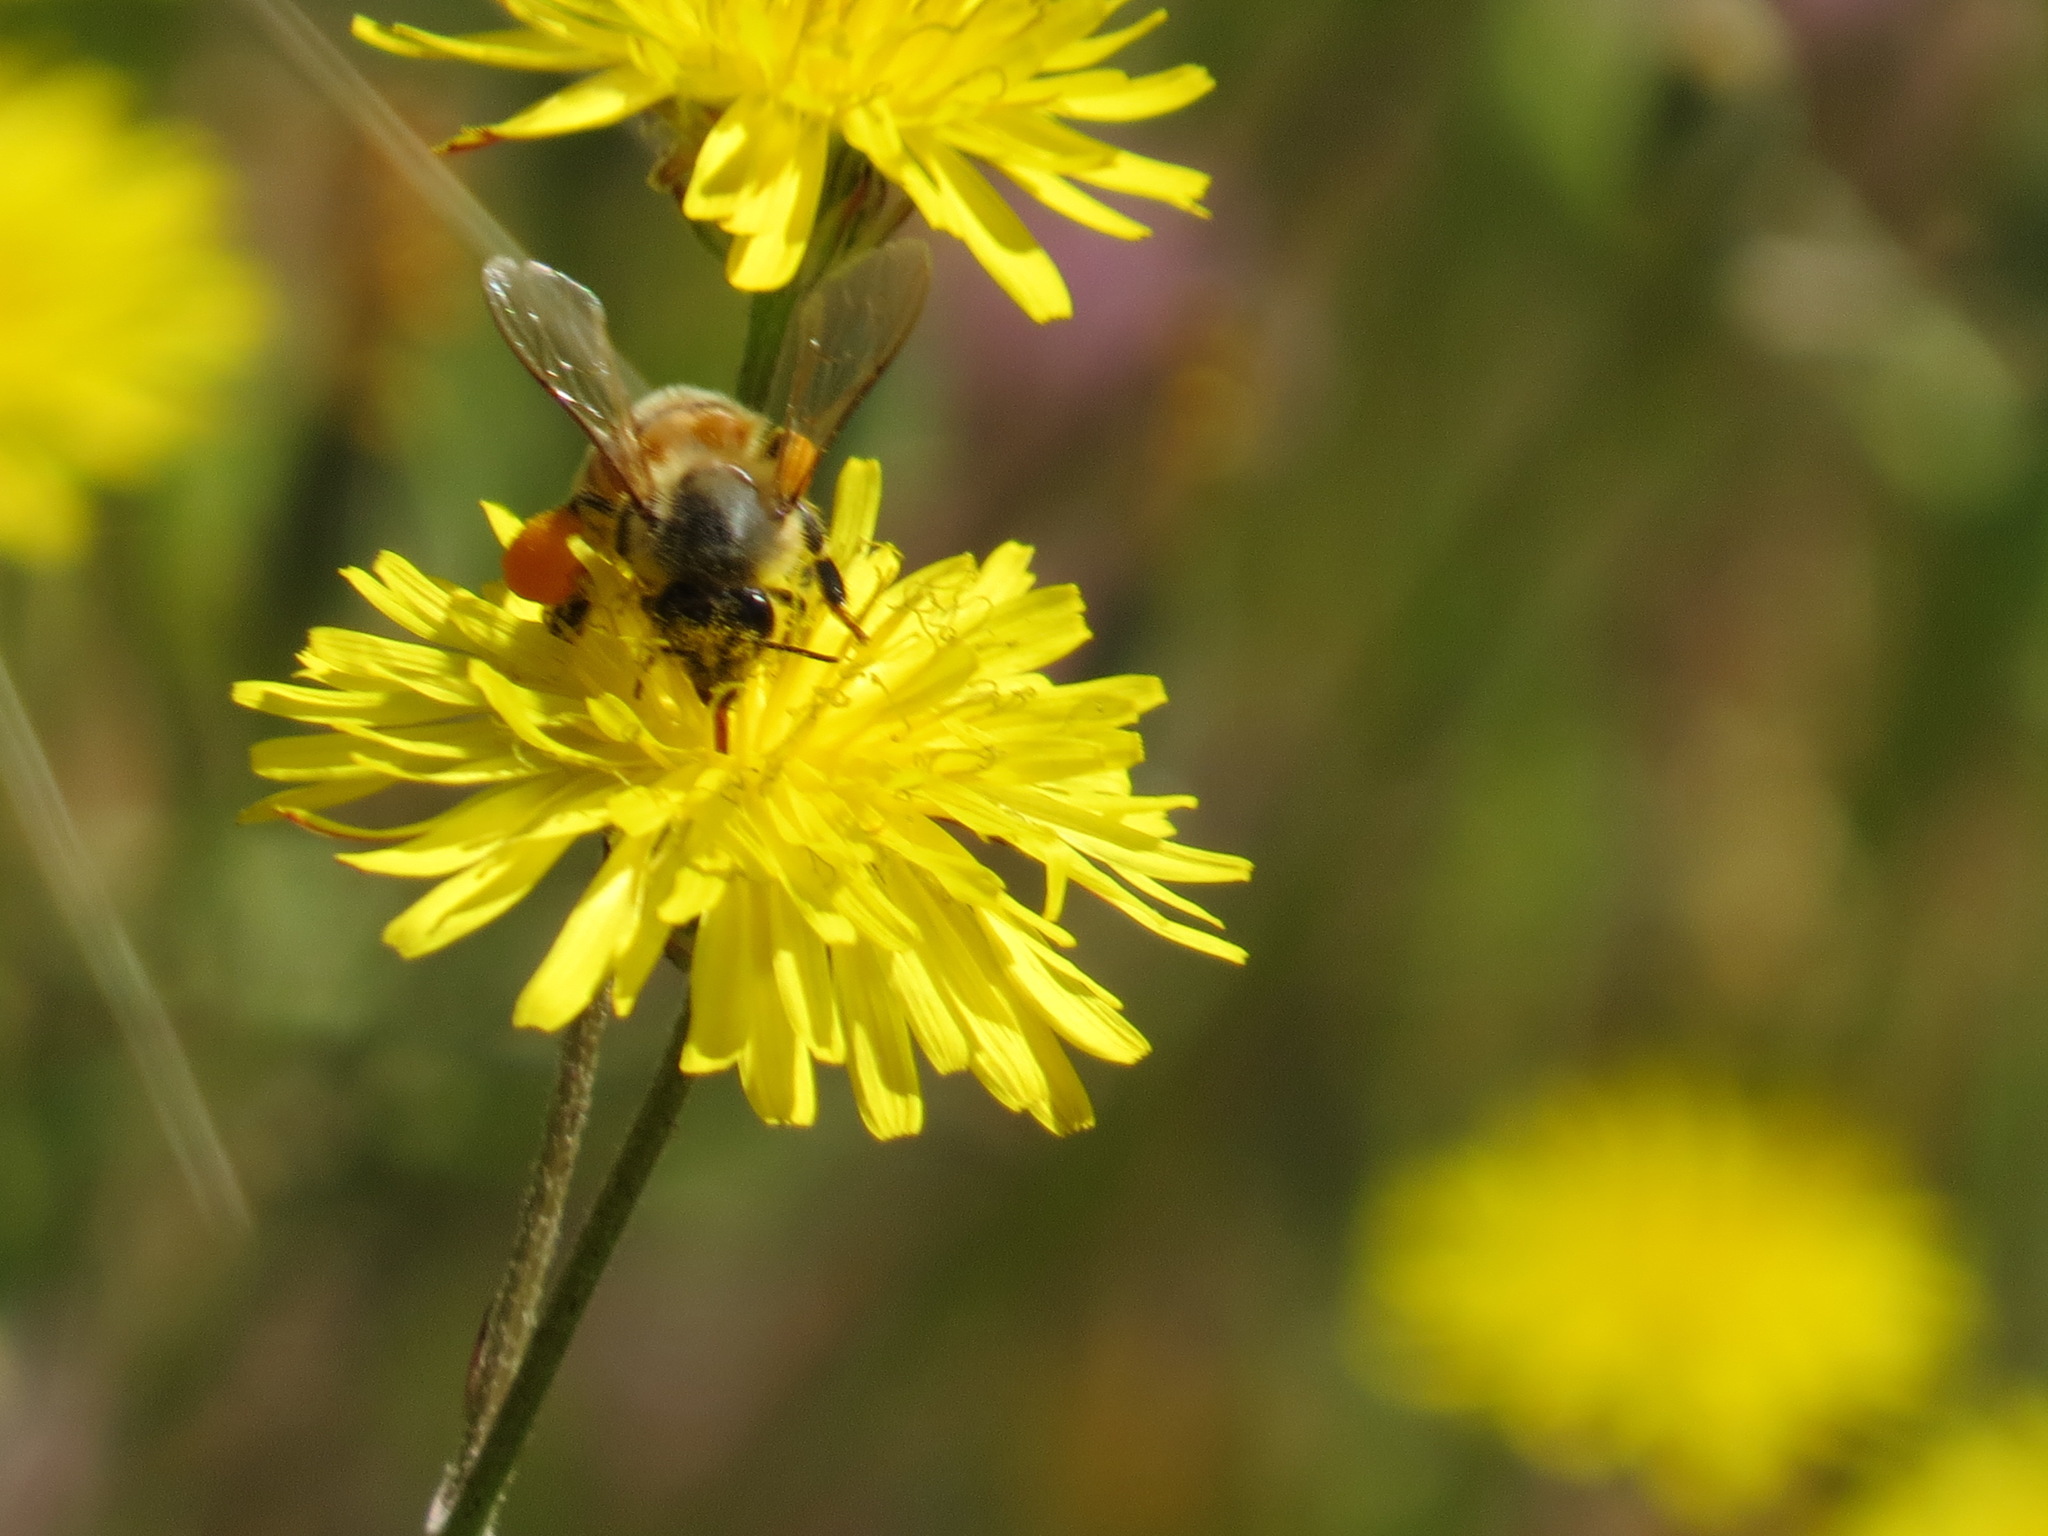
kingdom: Animalia
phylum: Arthropoda
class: Insecta
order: Hymenoptera
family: Apidae
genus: Apis
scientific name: Apis mellifera
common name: Honey bee
